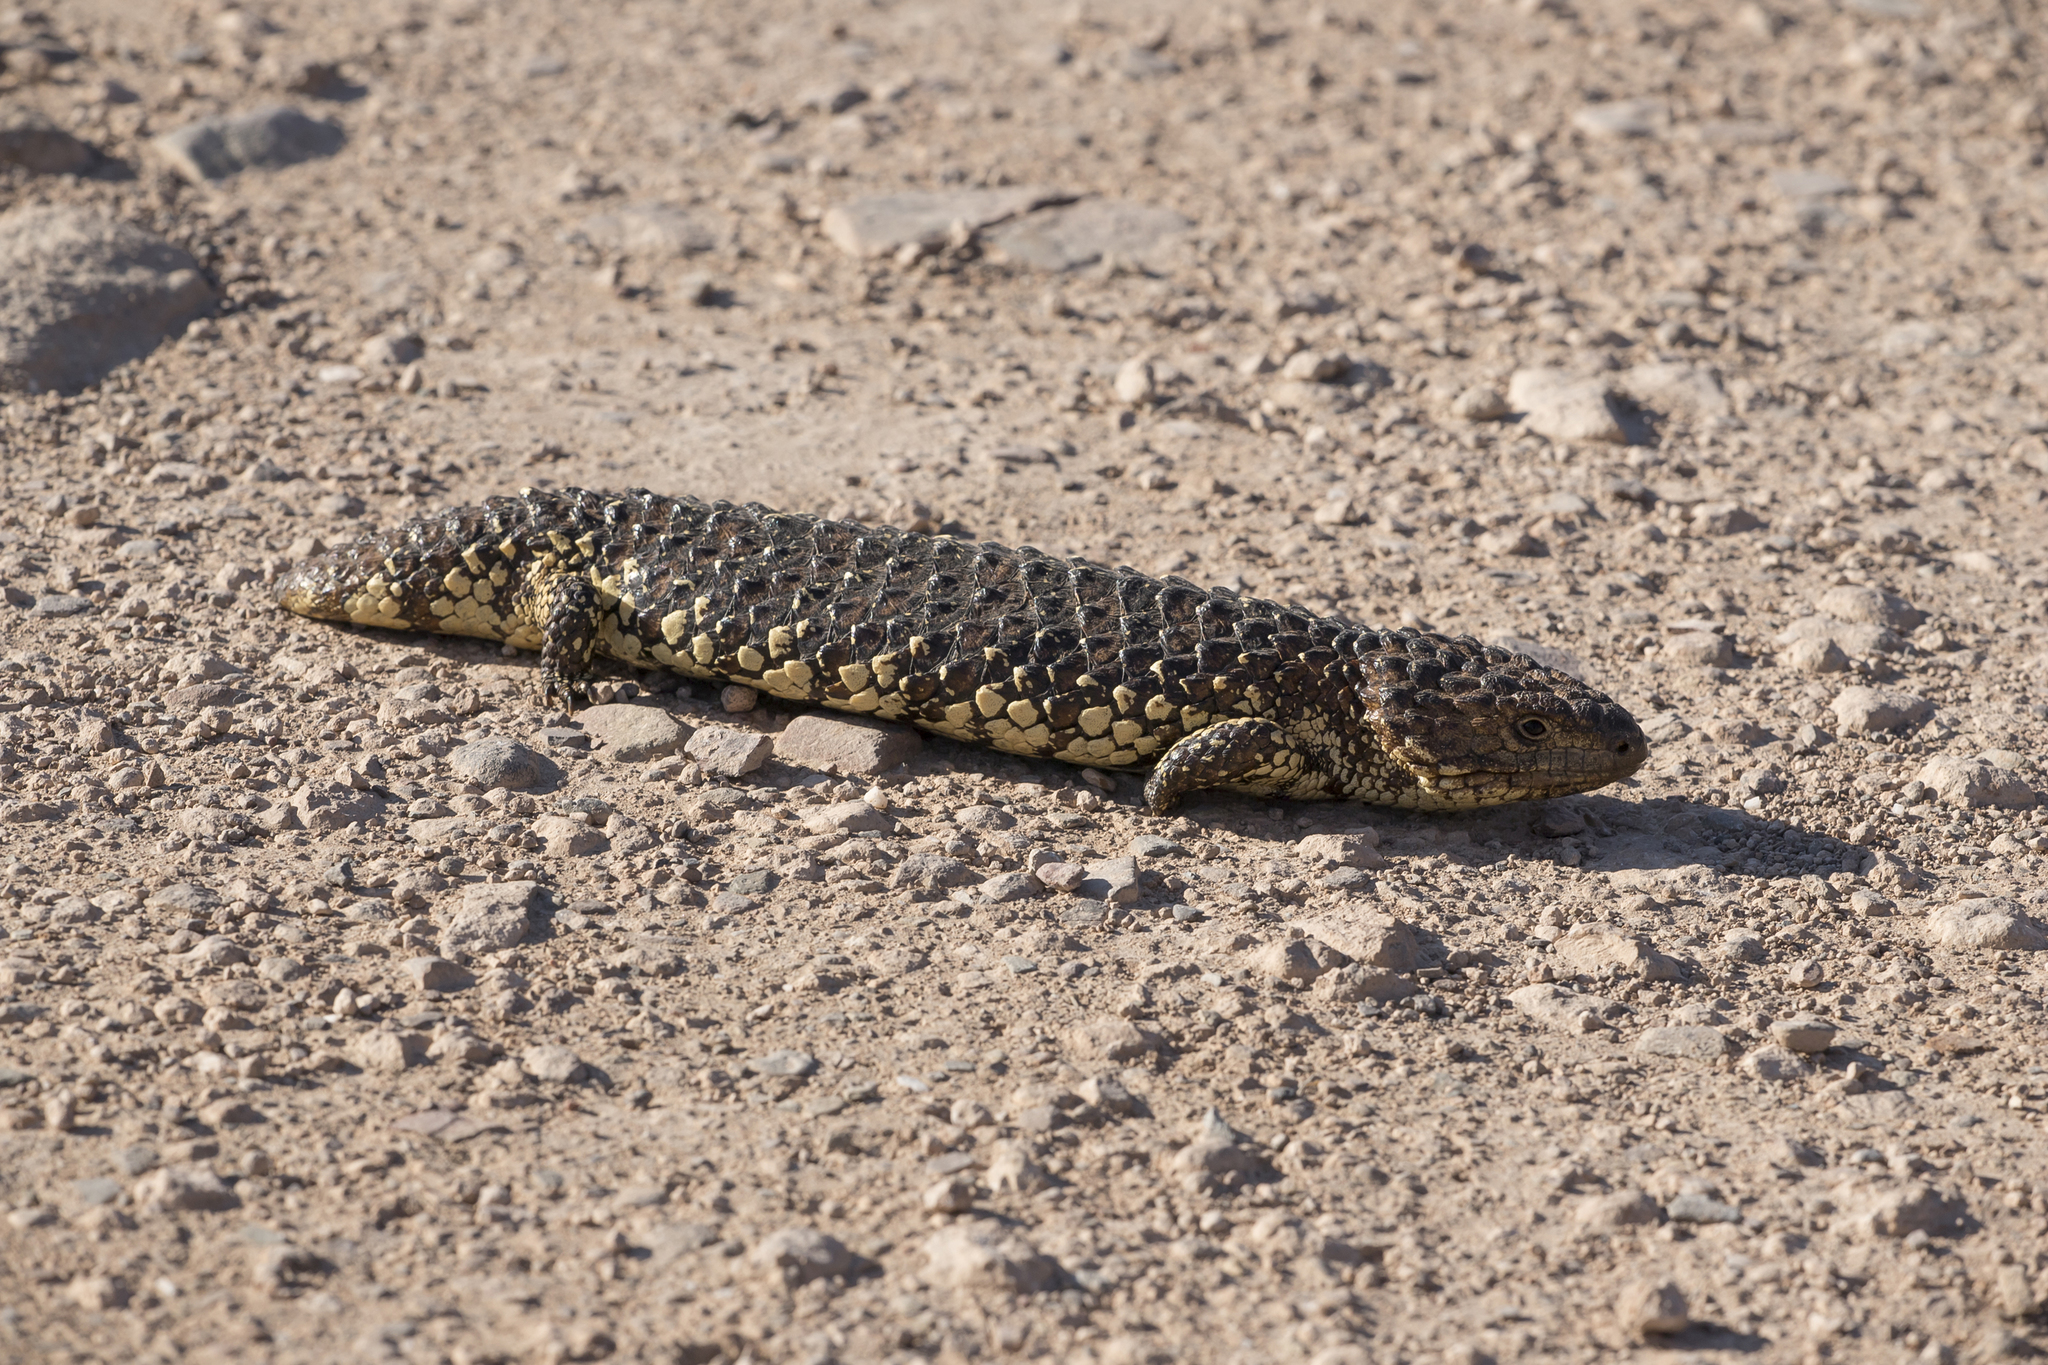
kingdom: Animalia
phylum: Chordata
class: Squamata
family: Scincidae
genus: Tiliqua
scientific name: Tiliqua rugosa
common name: Pinecone lizard
